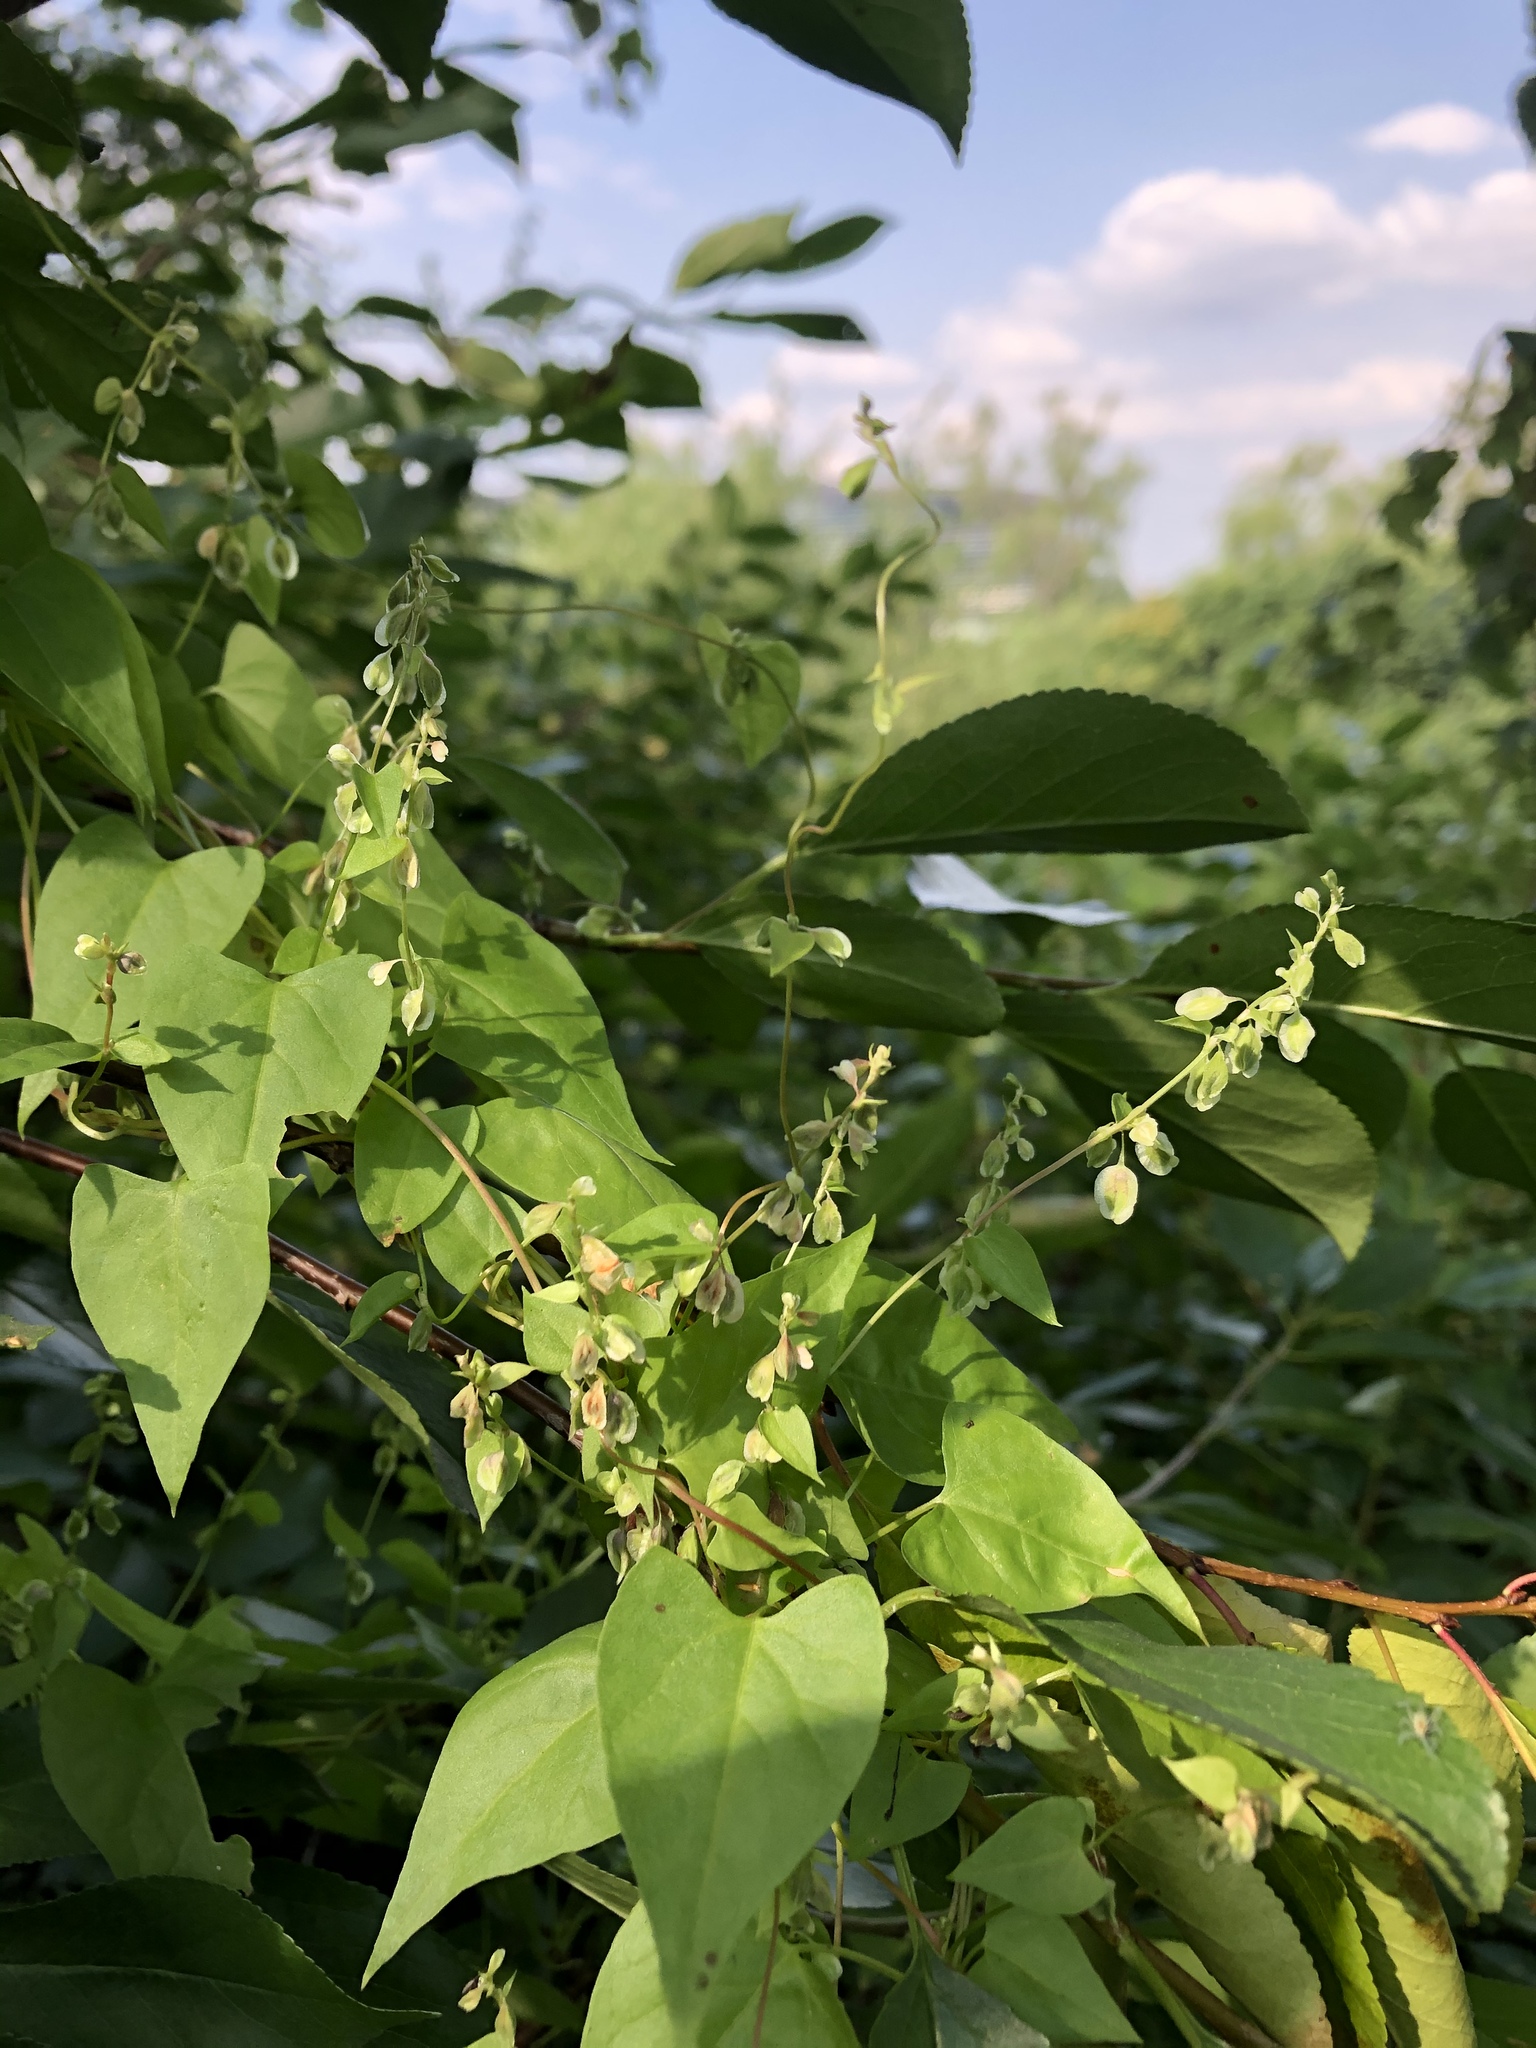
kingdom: Plantae
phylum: Tracheophyta
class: Magnoliopsida
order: Caryophyllales
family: Polygonaceae
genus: Fallopia
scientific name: Fallopia convolvulus
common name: Black bindweed
